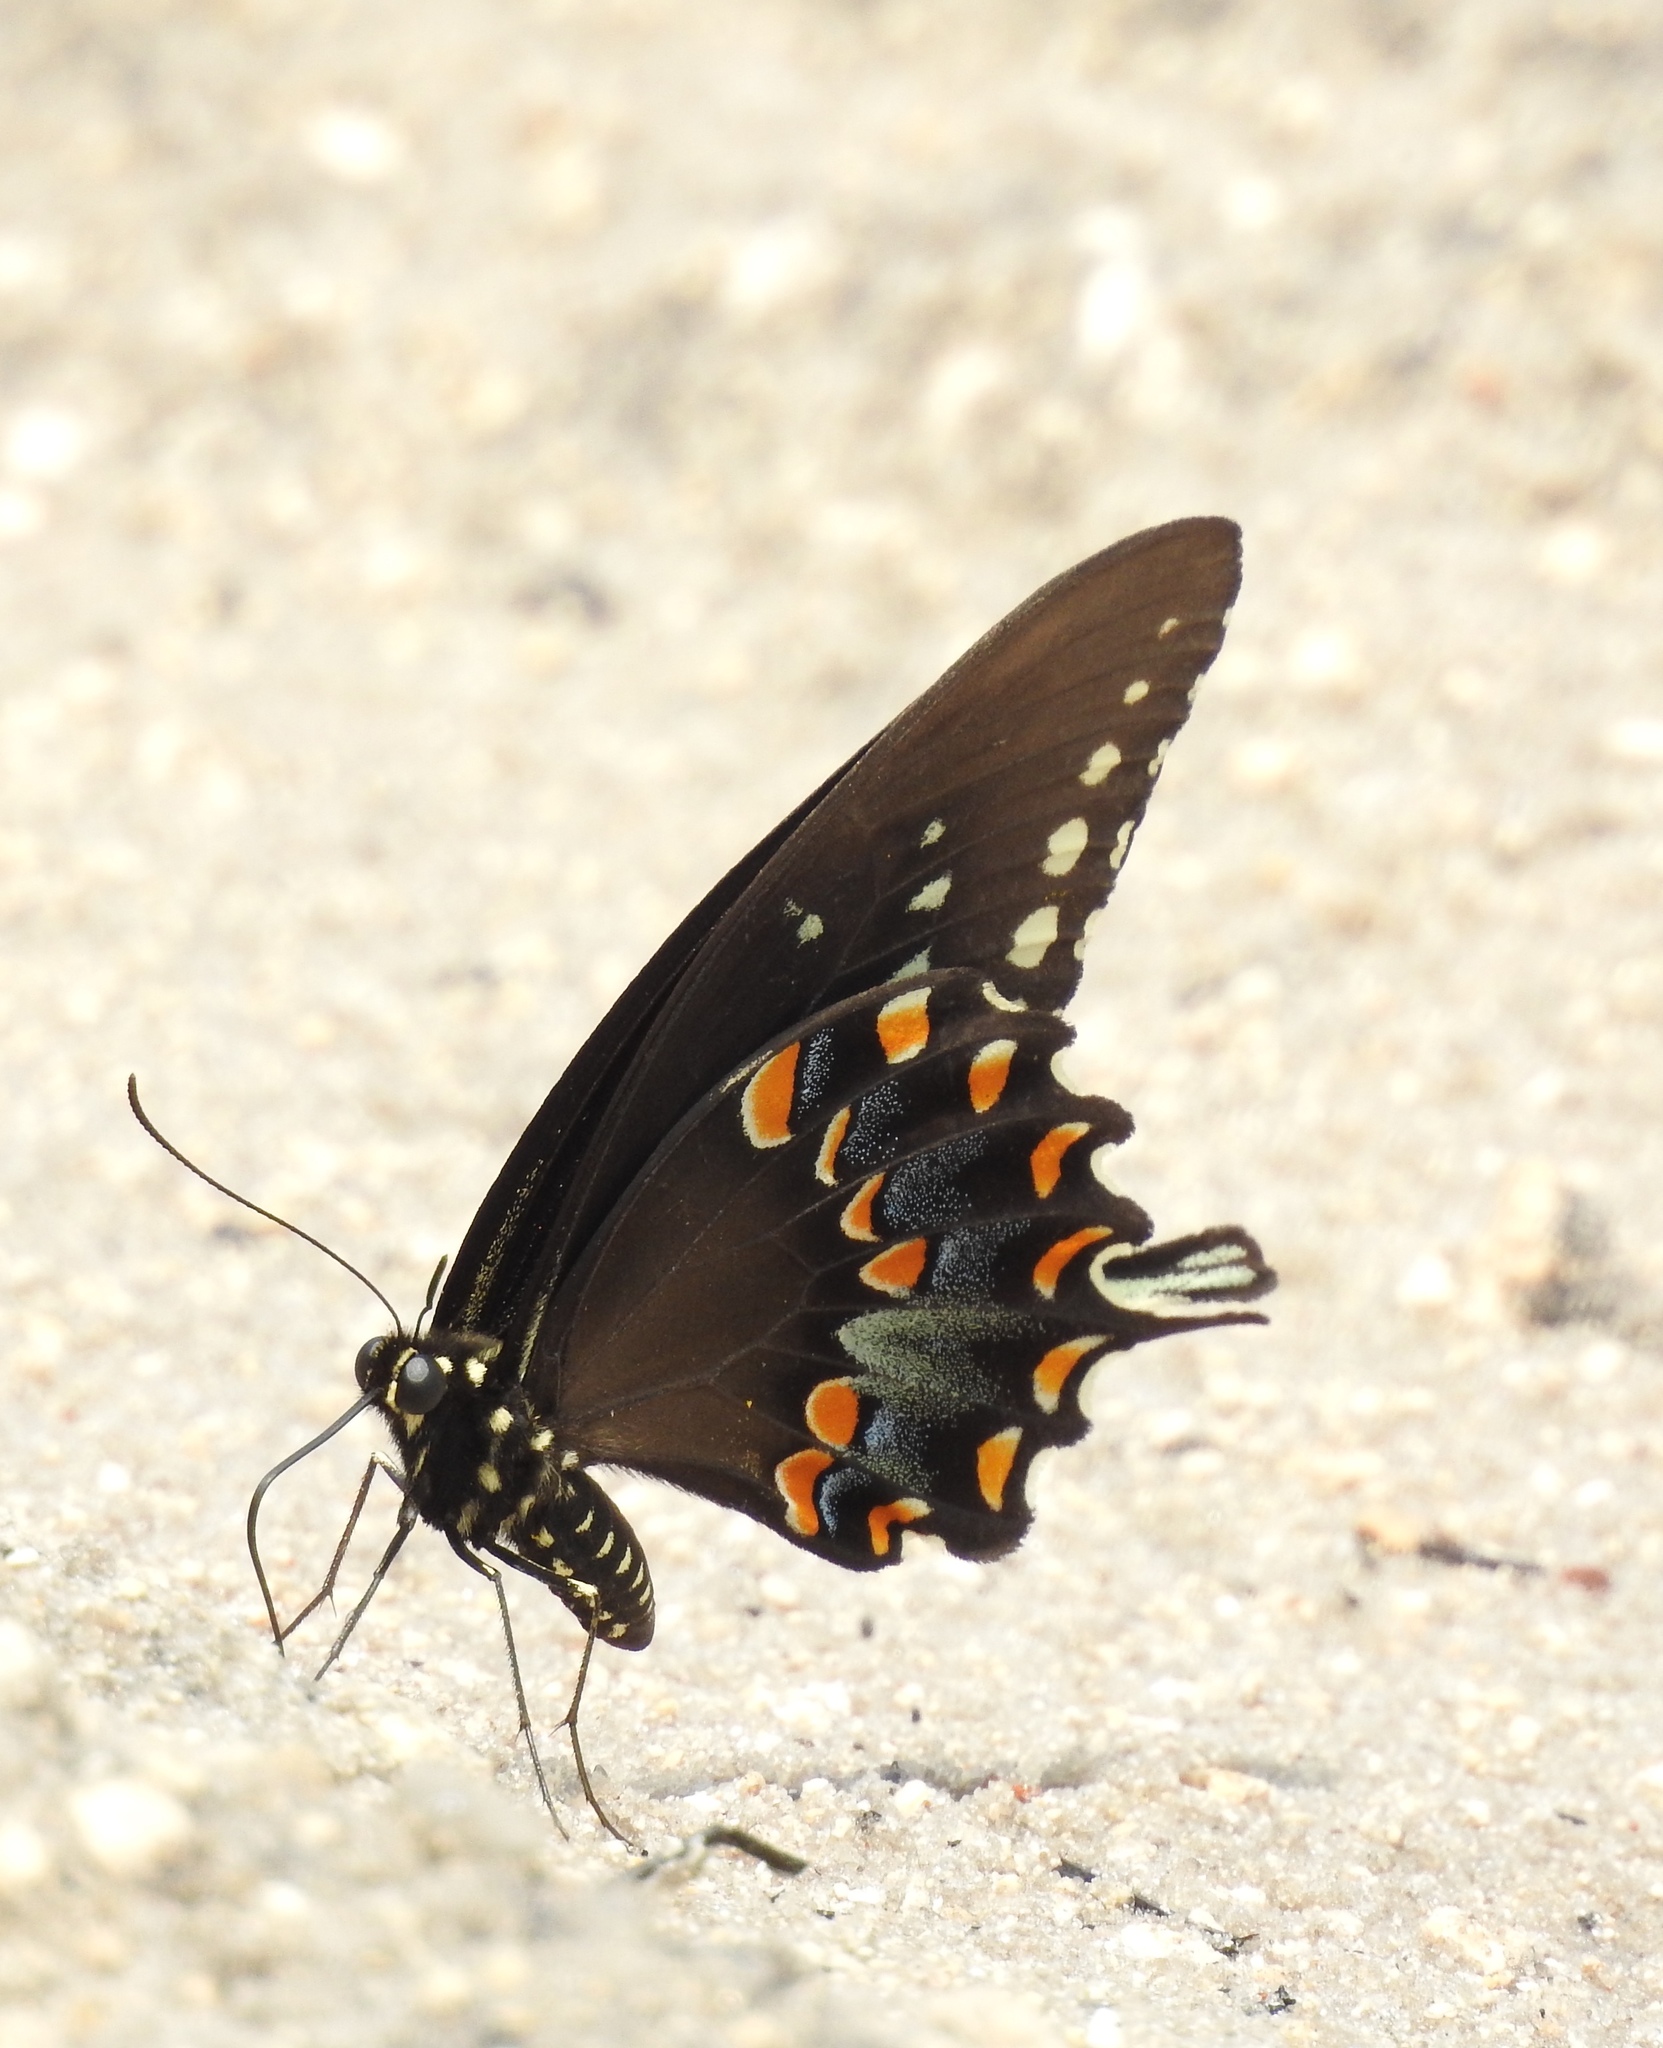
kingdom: Animalia
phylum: Arthropoda
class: Insecta
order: Lepidoptera
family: Papilionidae
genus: Papilio
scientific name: Papilio troilus
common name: Spicebush swallowtail
